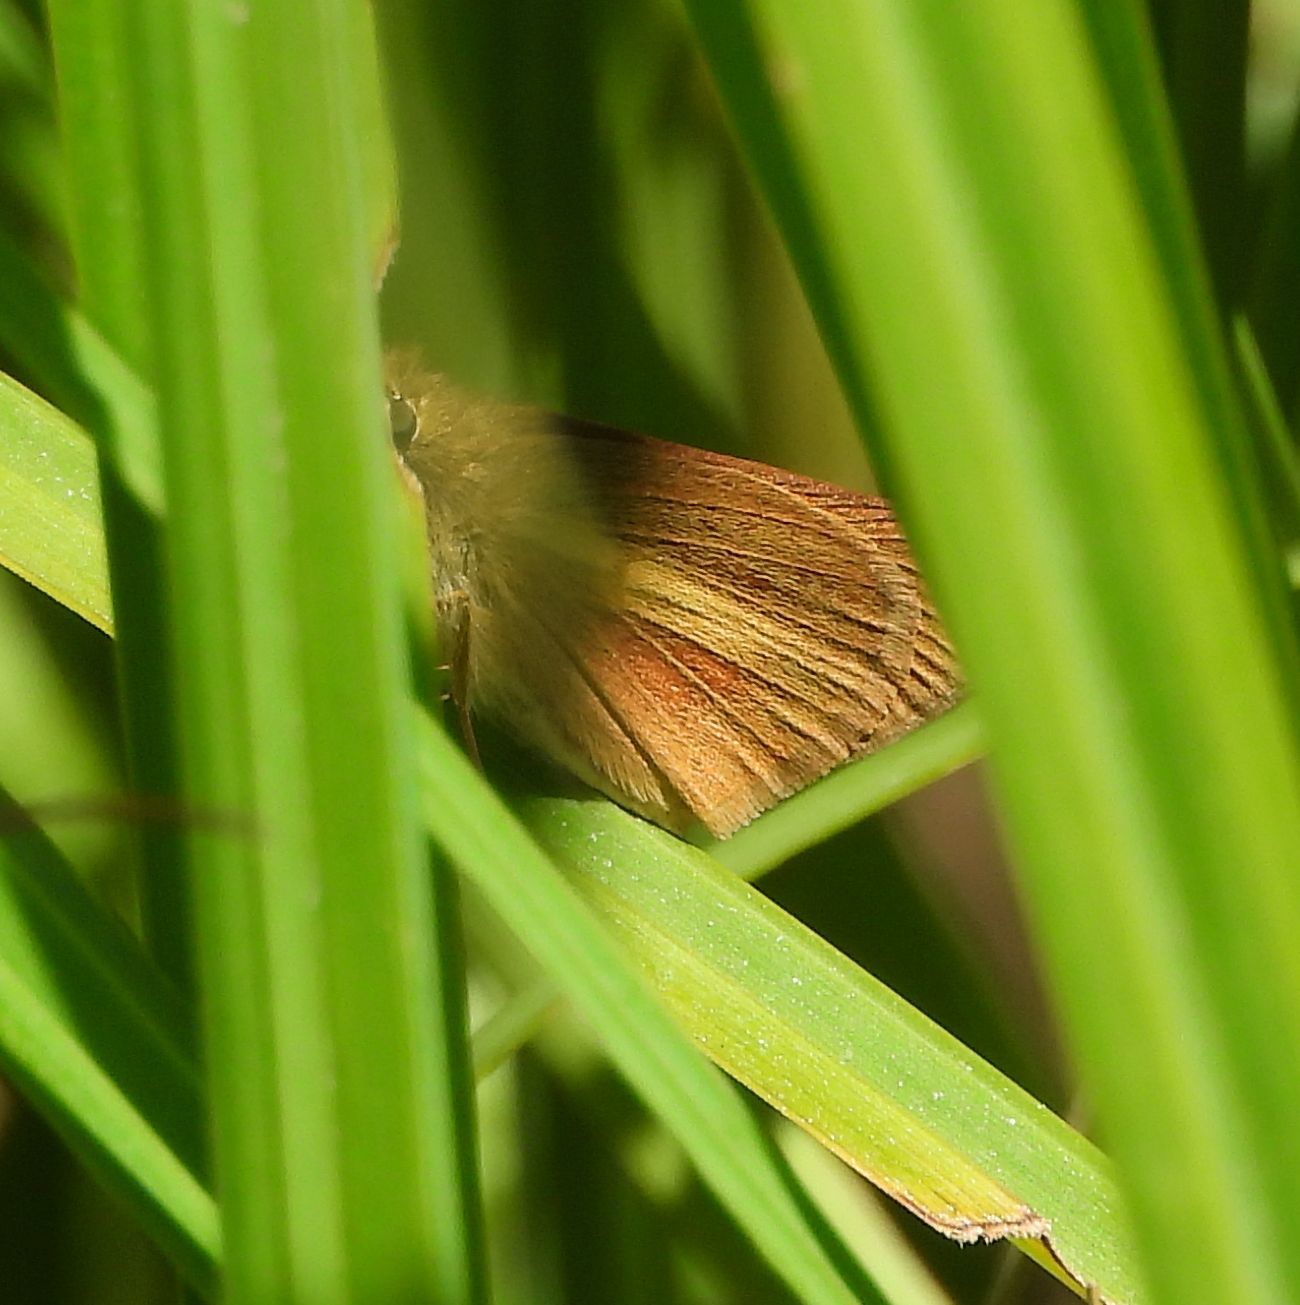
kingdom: Animalia
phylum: Arthropoda
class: Insecta
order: Lepidoptera
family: Hesperiidae
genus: Poanes
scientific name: Poanes viator
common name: Broad-winged skipper
